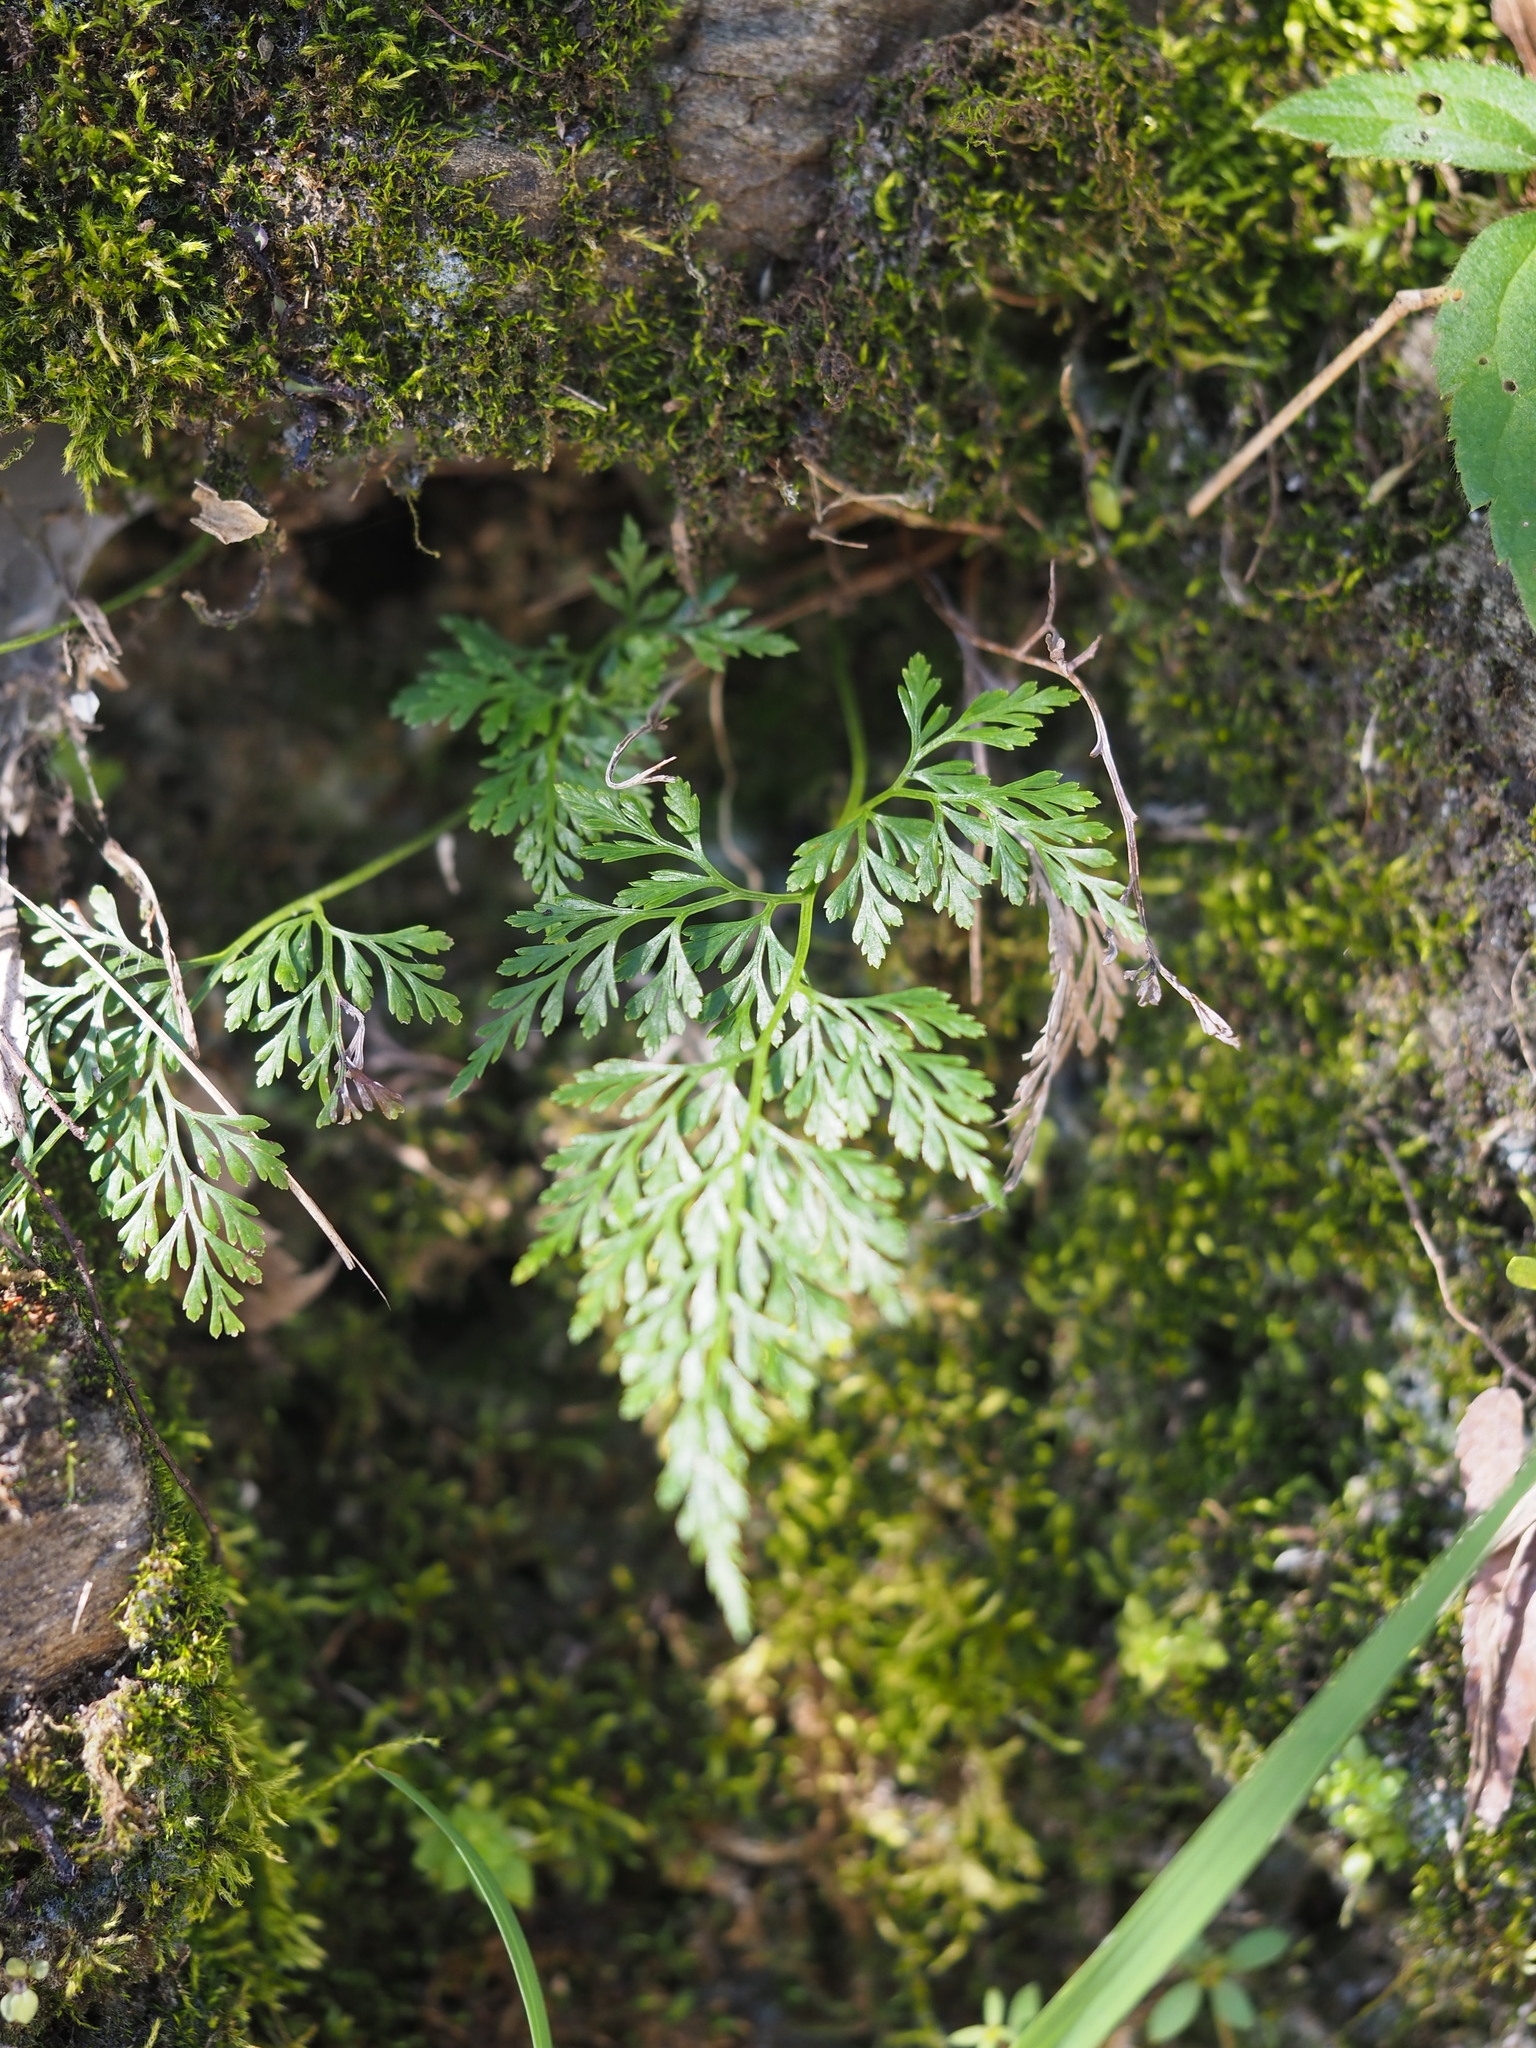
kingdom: Plantae
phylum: Tracheophyta
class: Polypodiopsida
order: Polypodiales
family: Pteridaceae
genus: Onychium
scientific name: Onychium japonicum
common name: Carrot fern
